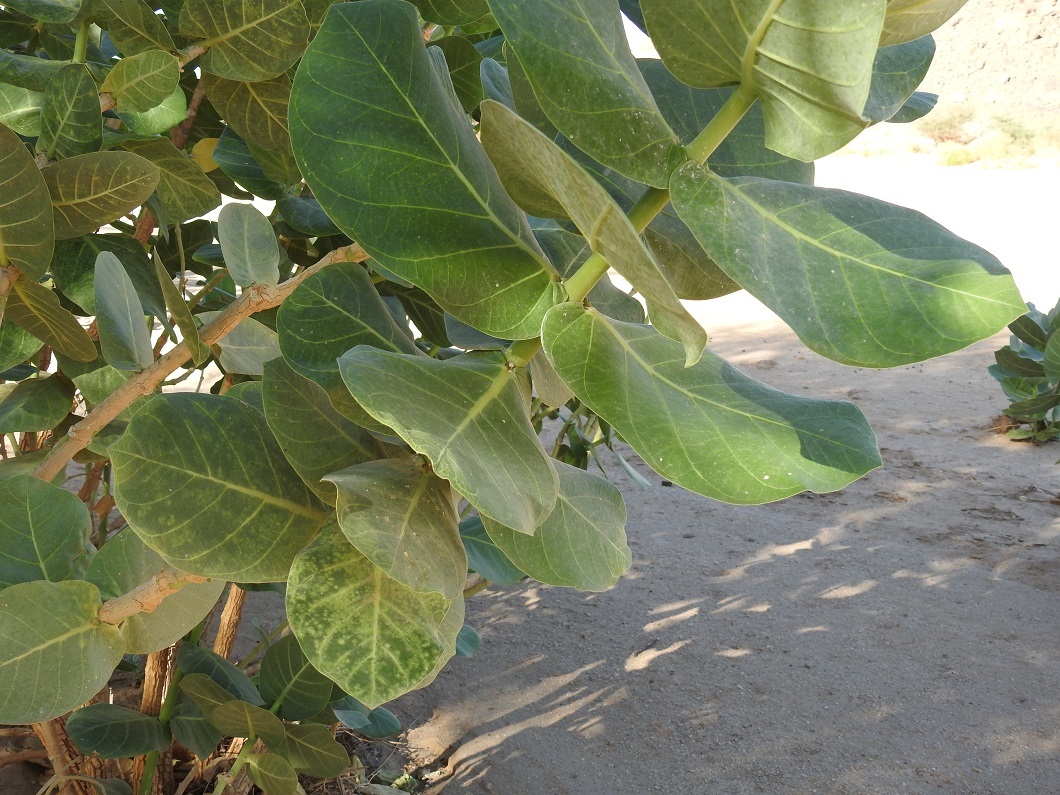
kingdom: Plantae
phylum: Tracheophyta
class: Magnoliopsida
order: Gentianales
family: Apocynaceae
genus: Calotropis
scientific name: Calotropis procera
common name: Roostertree
